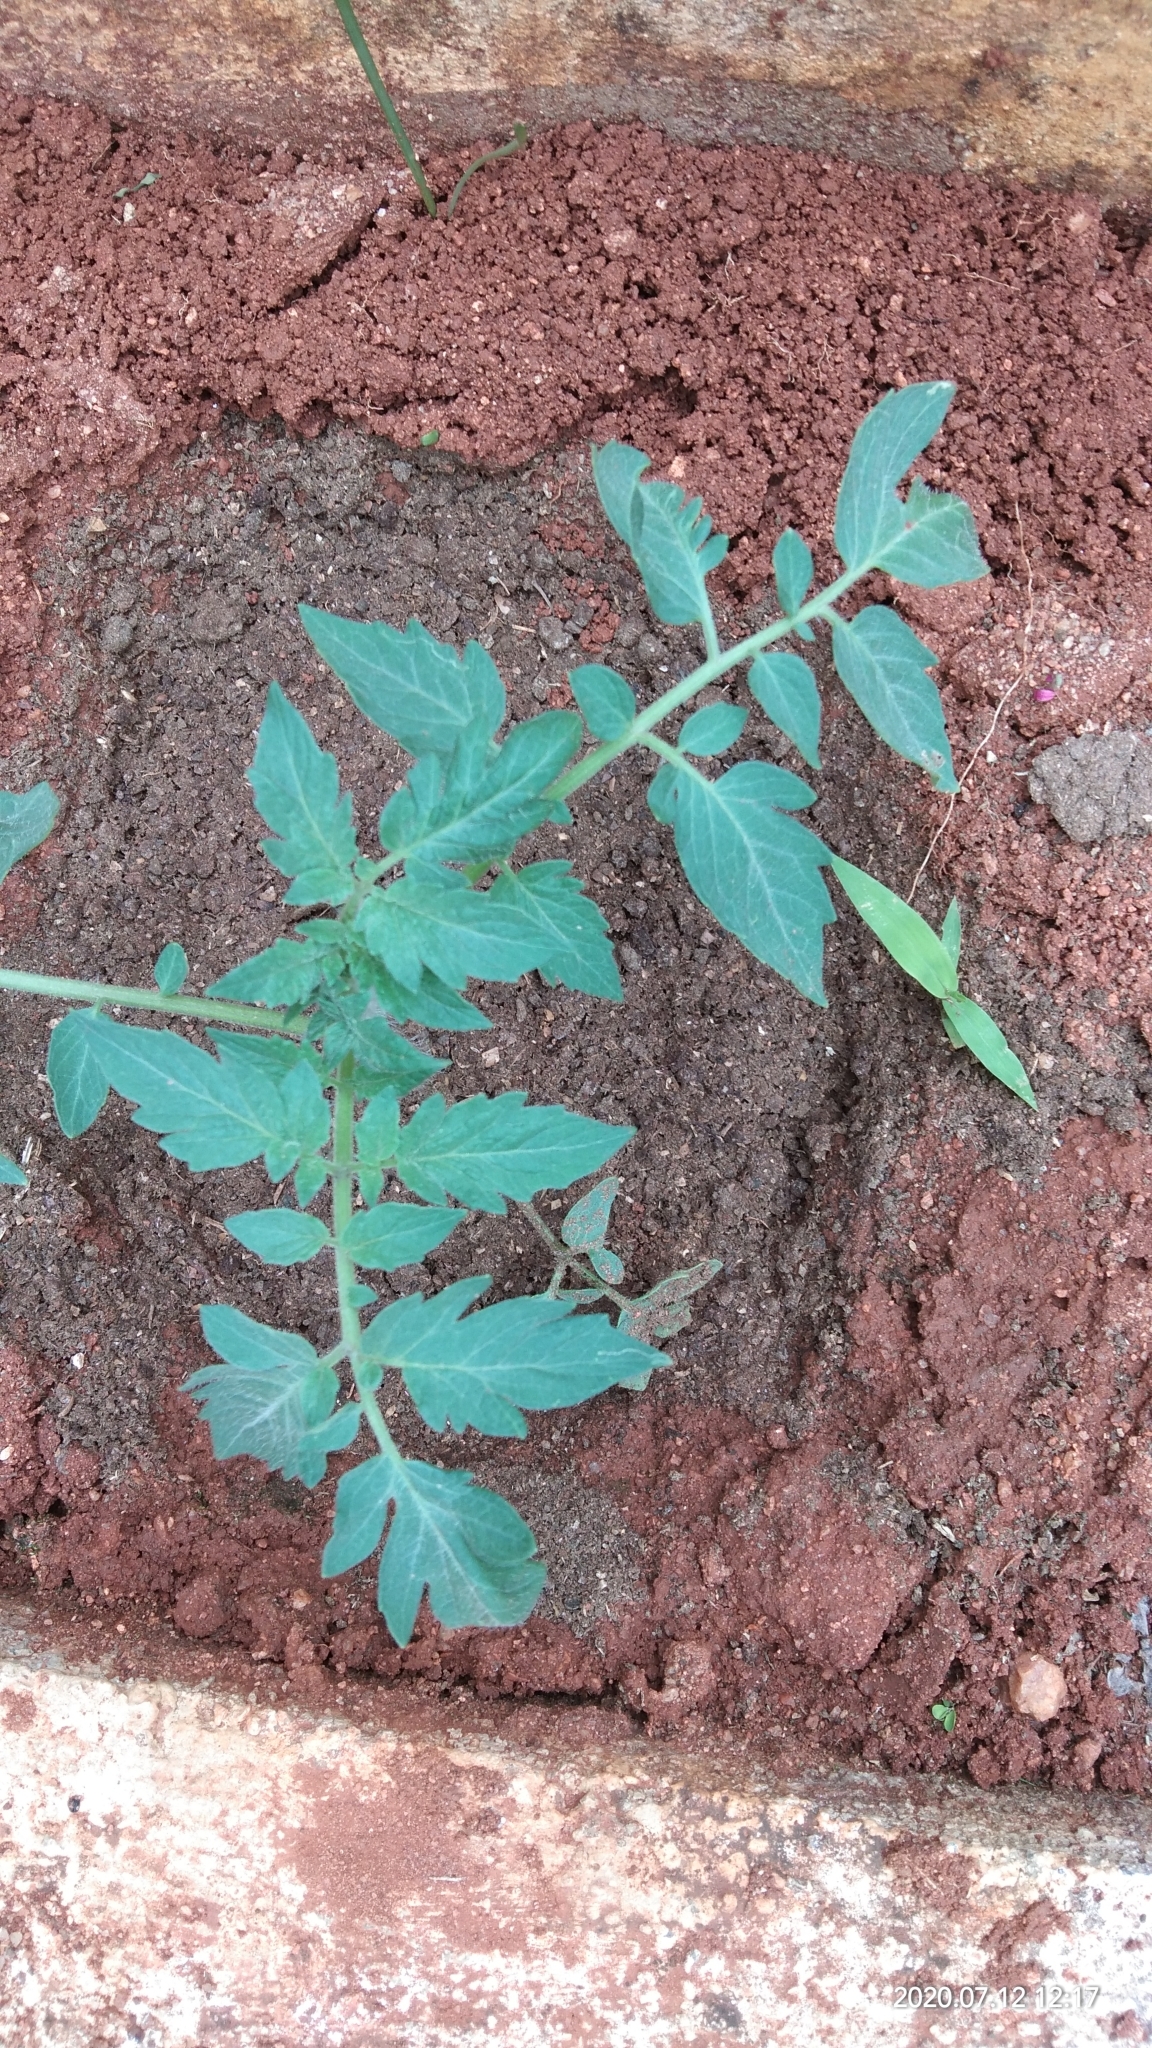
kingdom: Plantae
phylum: Tracheophyta
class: Magnoliopsida
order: Solanales
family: Solanaceae
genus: Solanum
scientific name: Solanum lycopersicum
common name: Garden tomato
